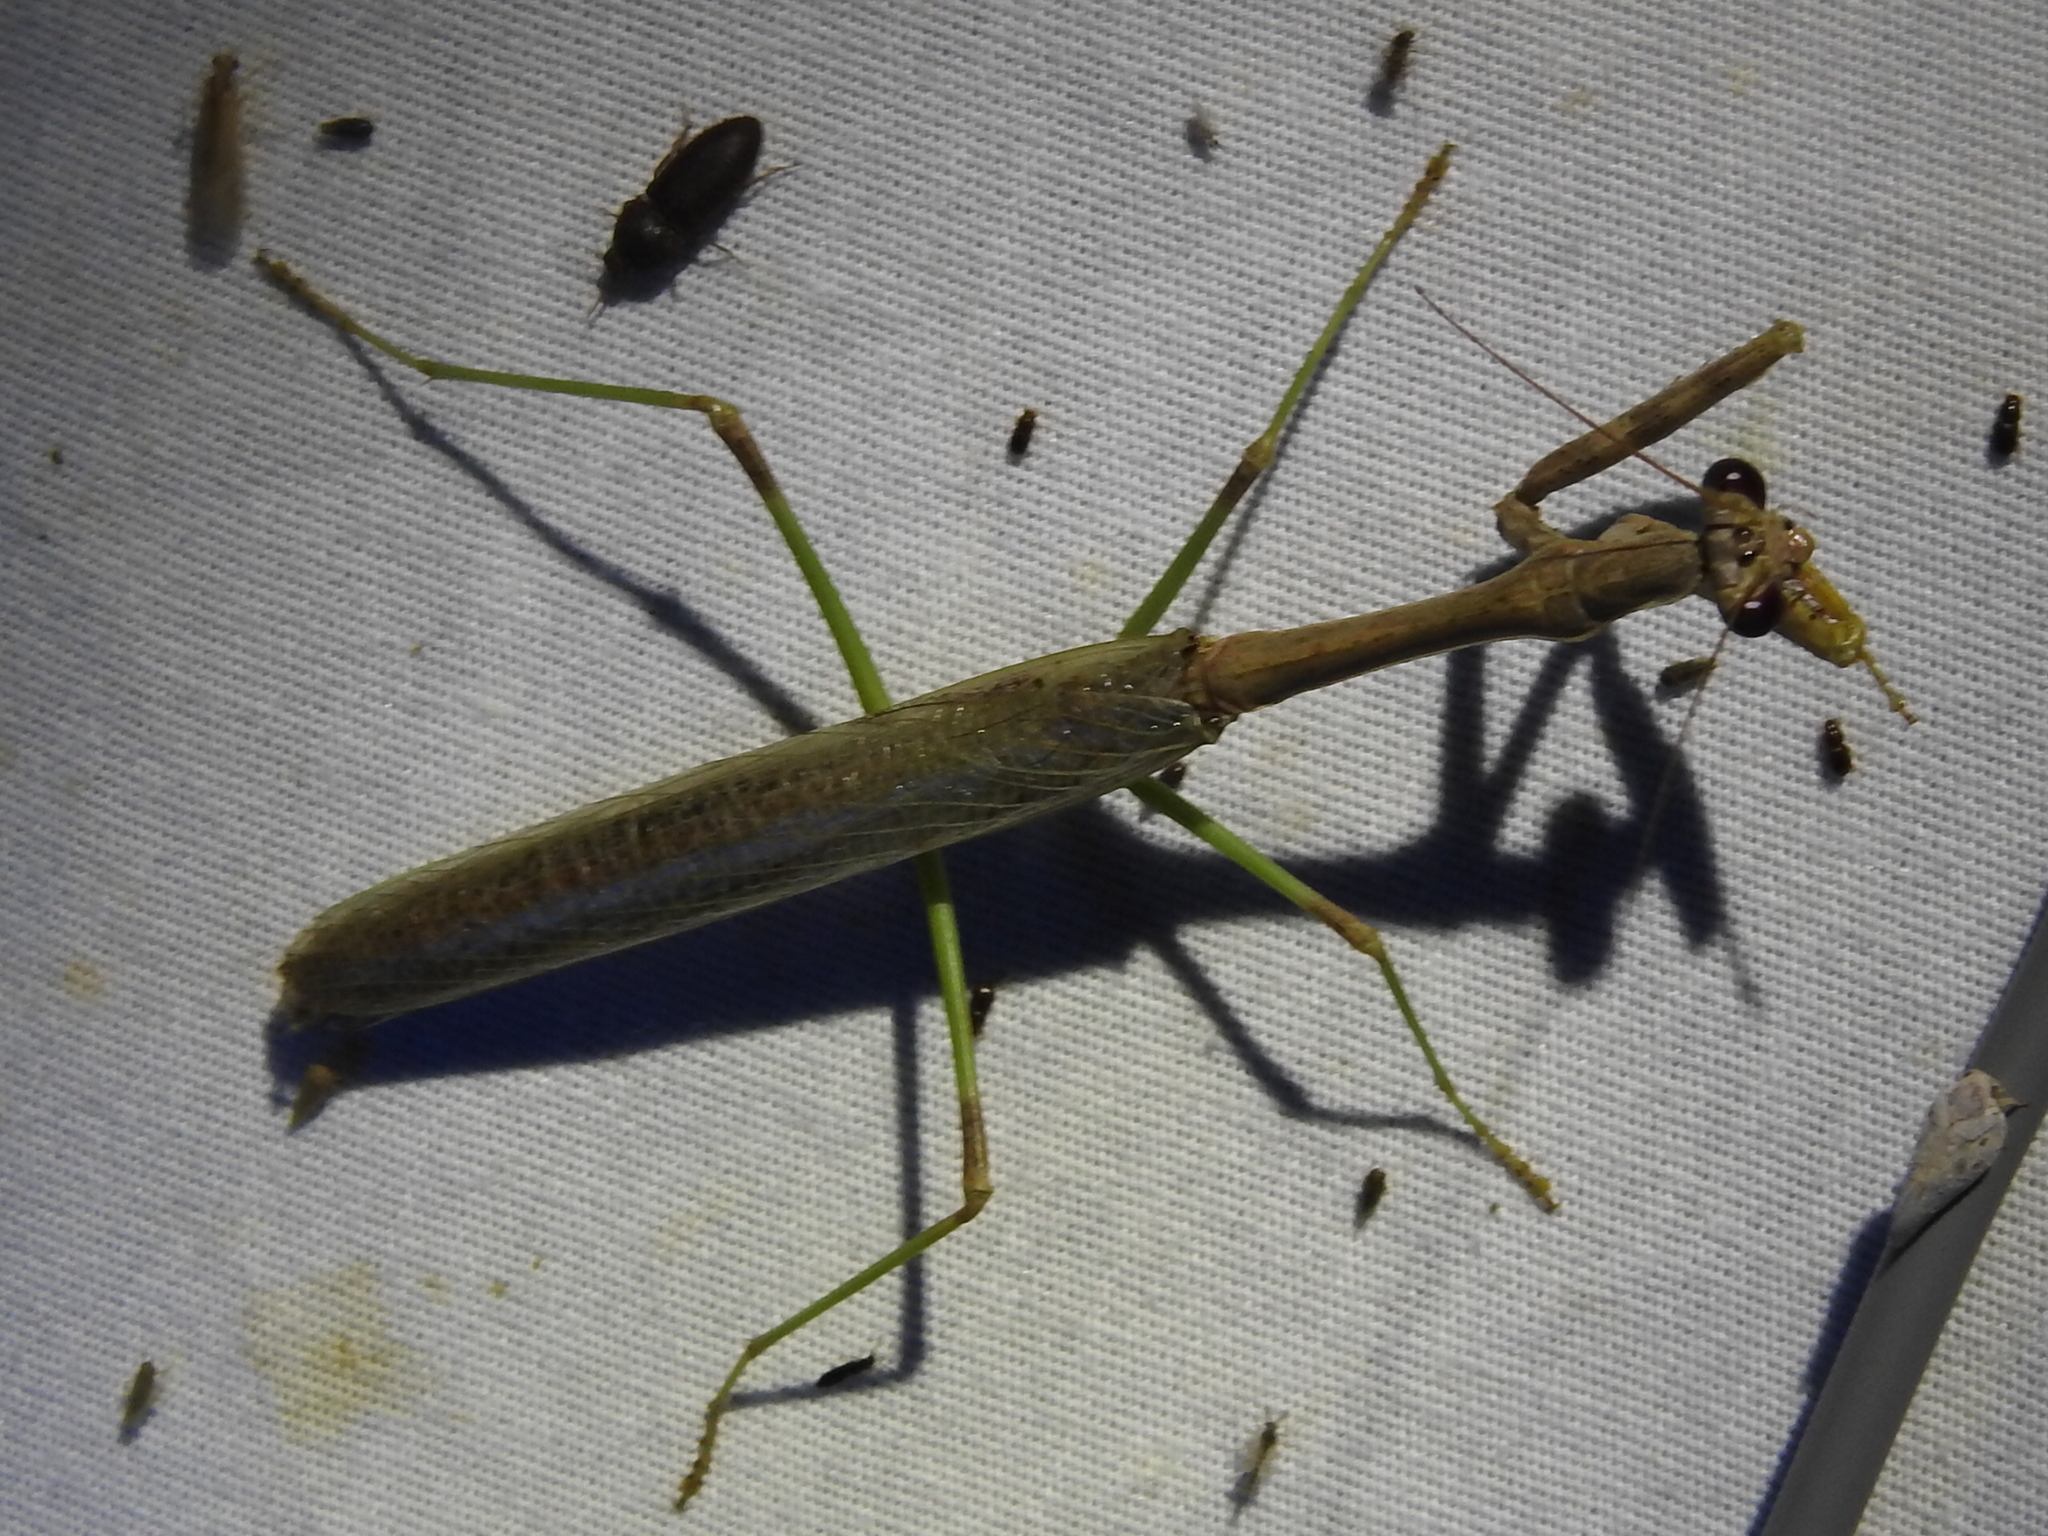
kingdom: Animalia
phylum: Arthropoda
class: Insecta
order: Mantodea
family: Mantidae
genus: Stagmomantis
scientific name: Stagmomantis carolina
